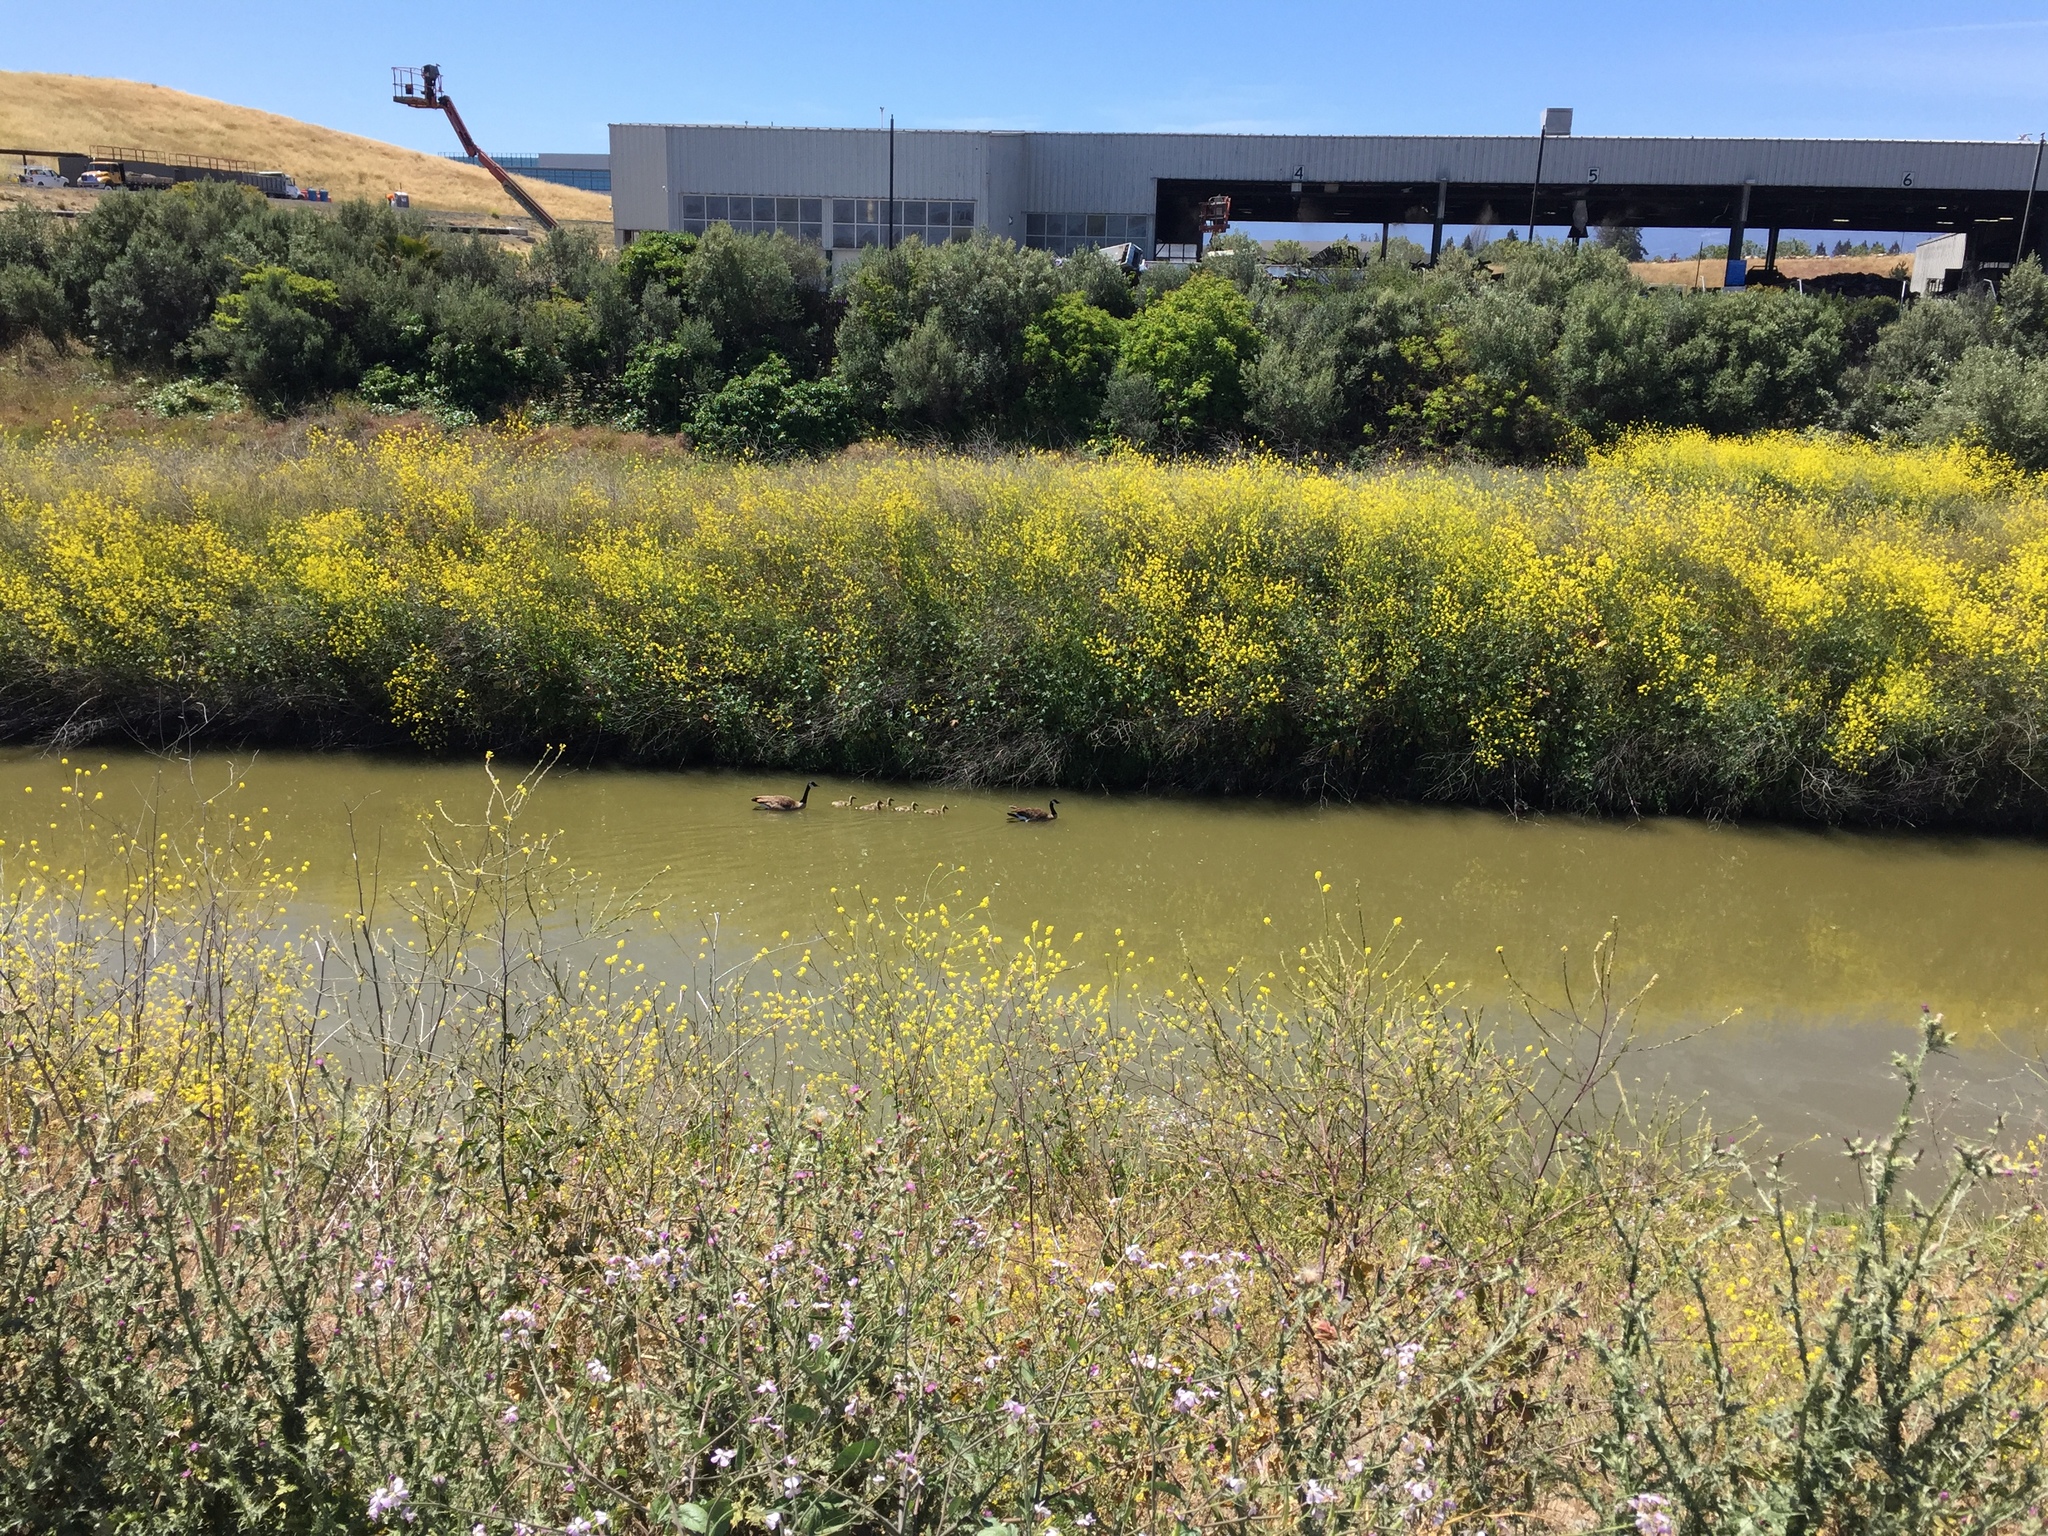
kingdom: Animalia
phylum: Chordata
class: Aves
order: Anseriformes
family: Anatidae
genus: Branta
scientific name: Branta canadensis
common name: Canada goose
